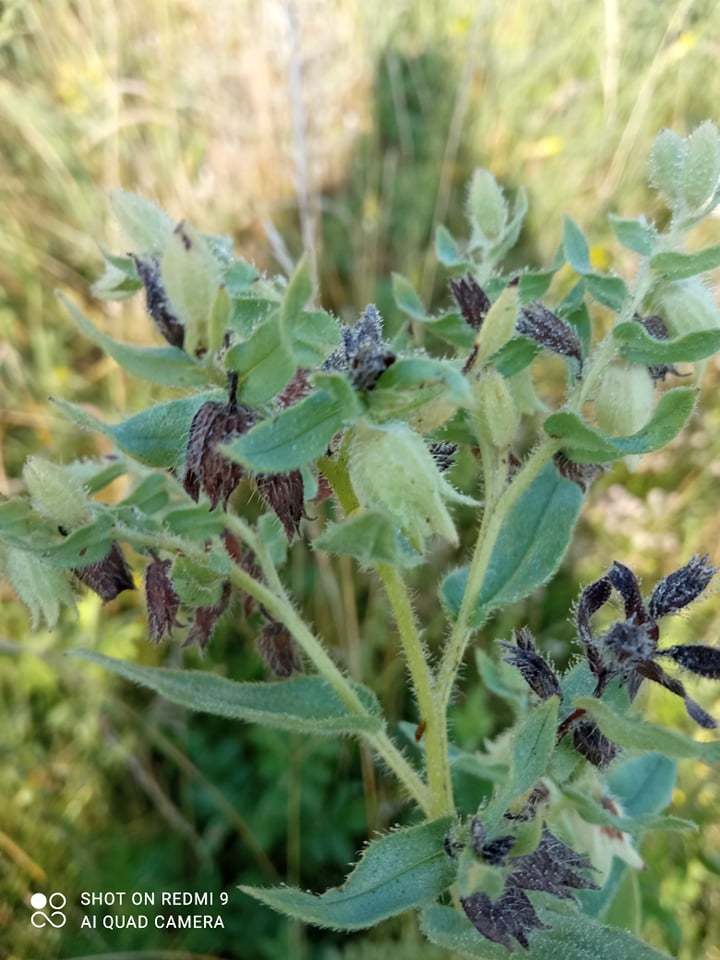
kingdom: Plantae
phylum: Tracheophyta
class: Magnoliopsida
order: Boraginales
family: Boraginaceae
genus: Nonea
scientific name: Nonea pulla
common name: Brown nonea
